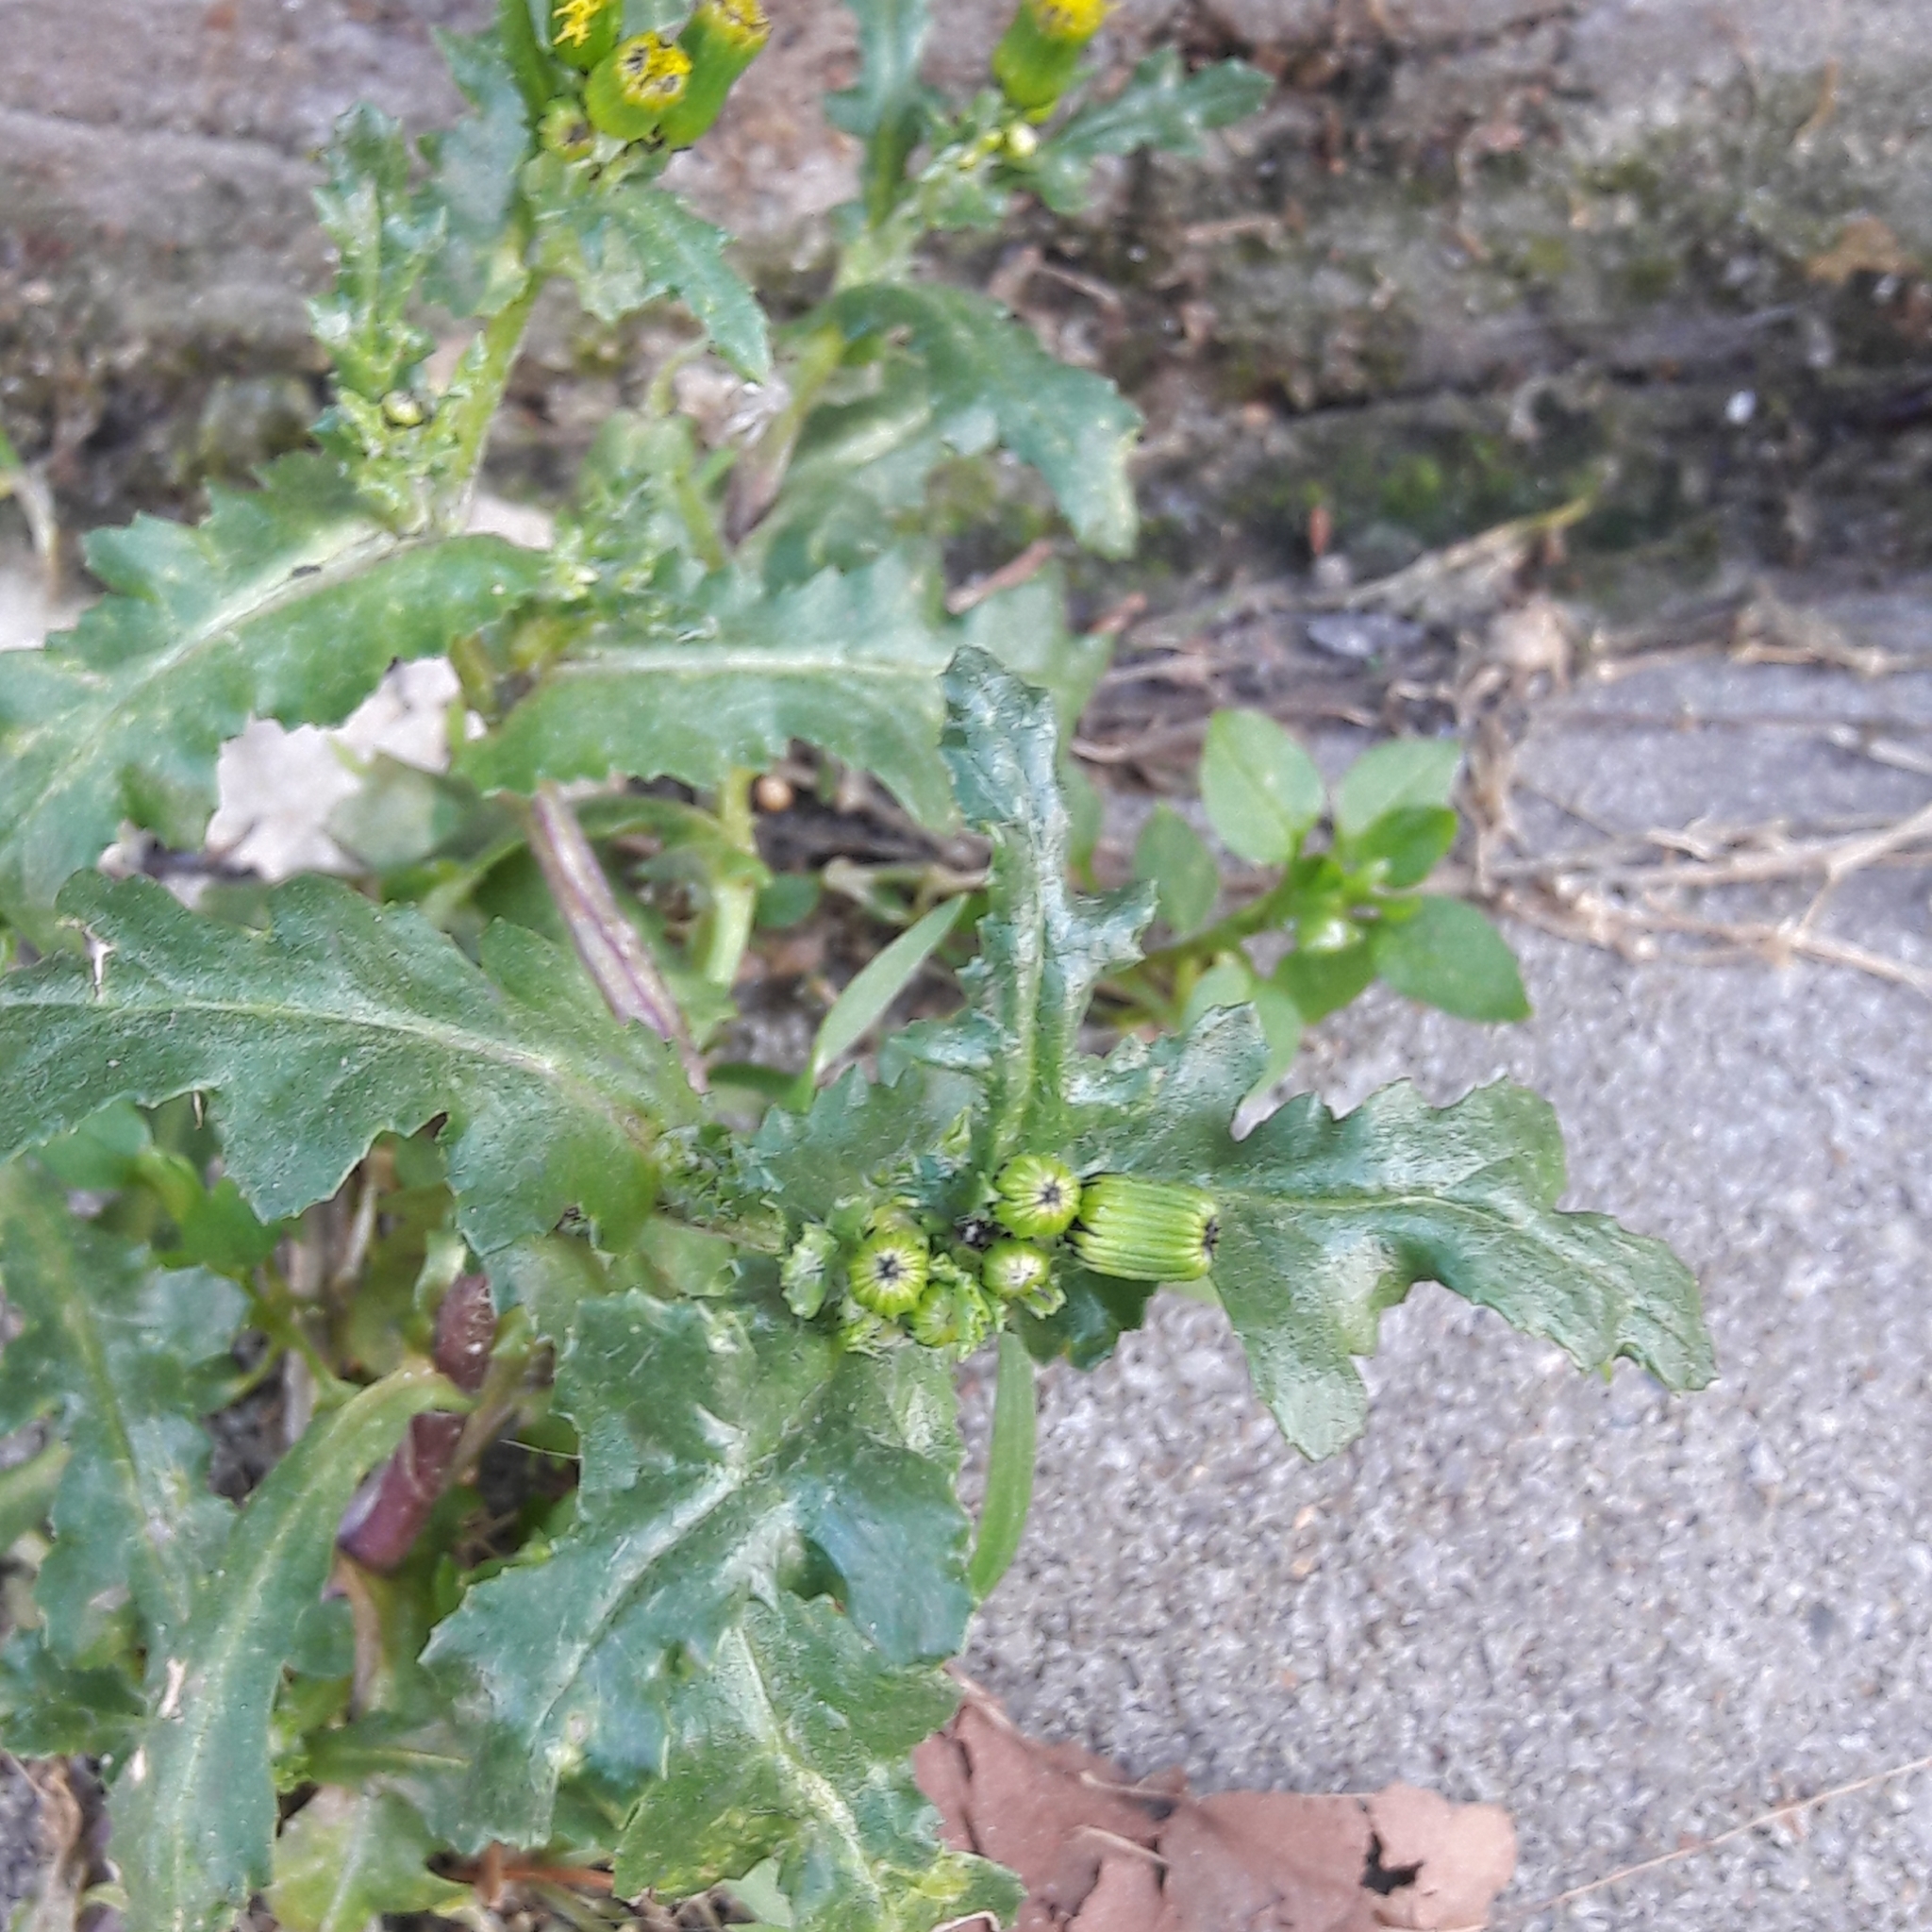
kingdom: Plantae
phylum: Tracheophyta
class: Magnoliopsida
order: Asterales
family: Asteraceae
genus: Senecio
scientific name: Senecio vulgaris
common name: Old-man-in-the-spring
